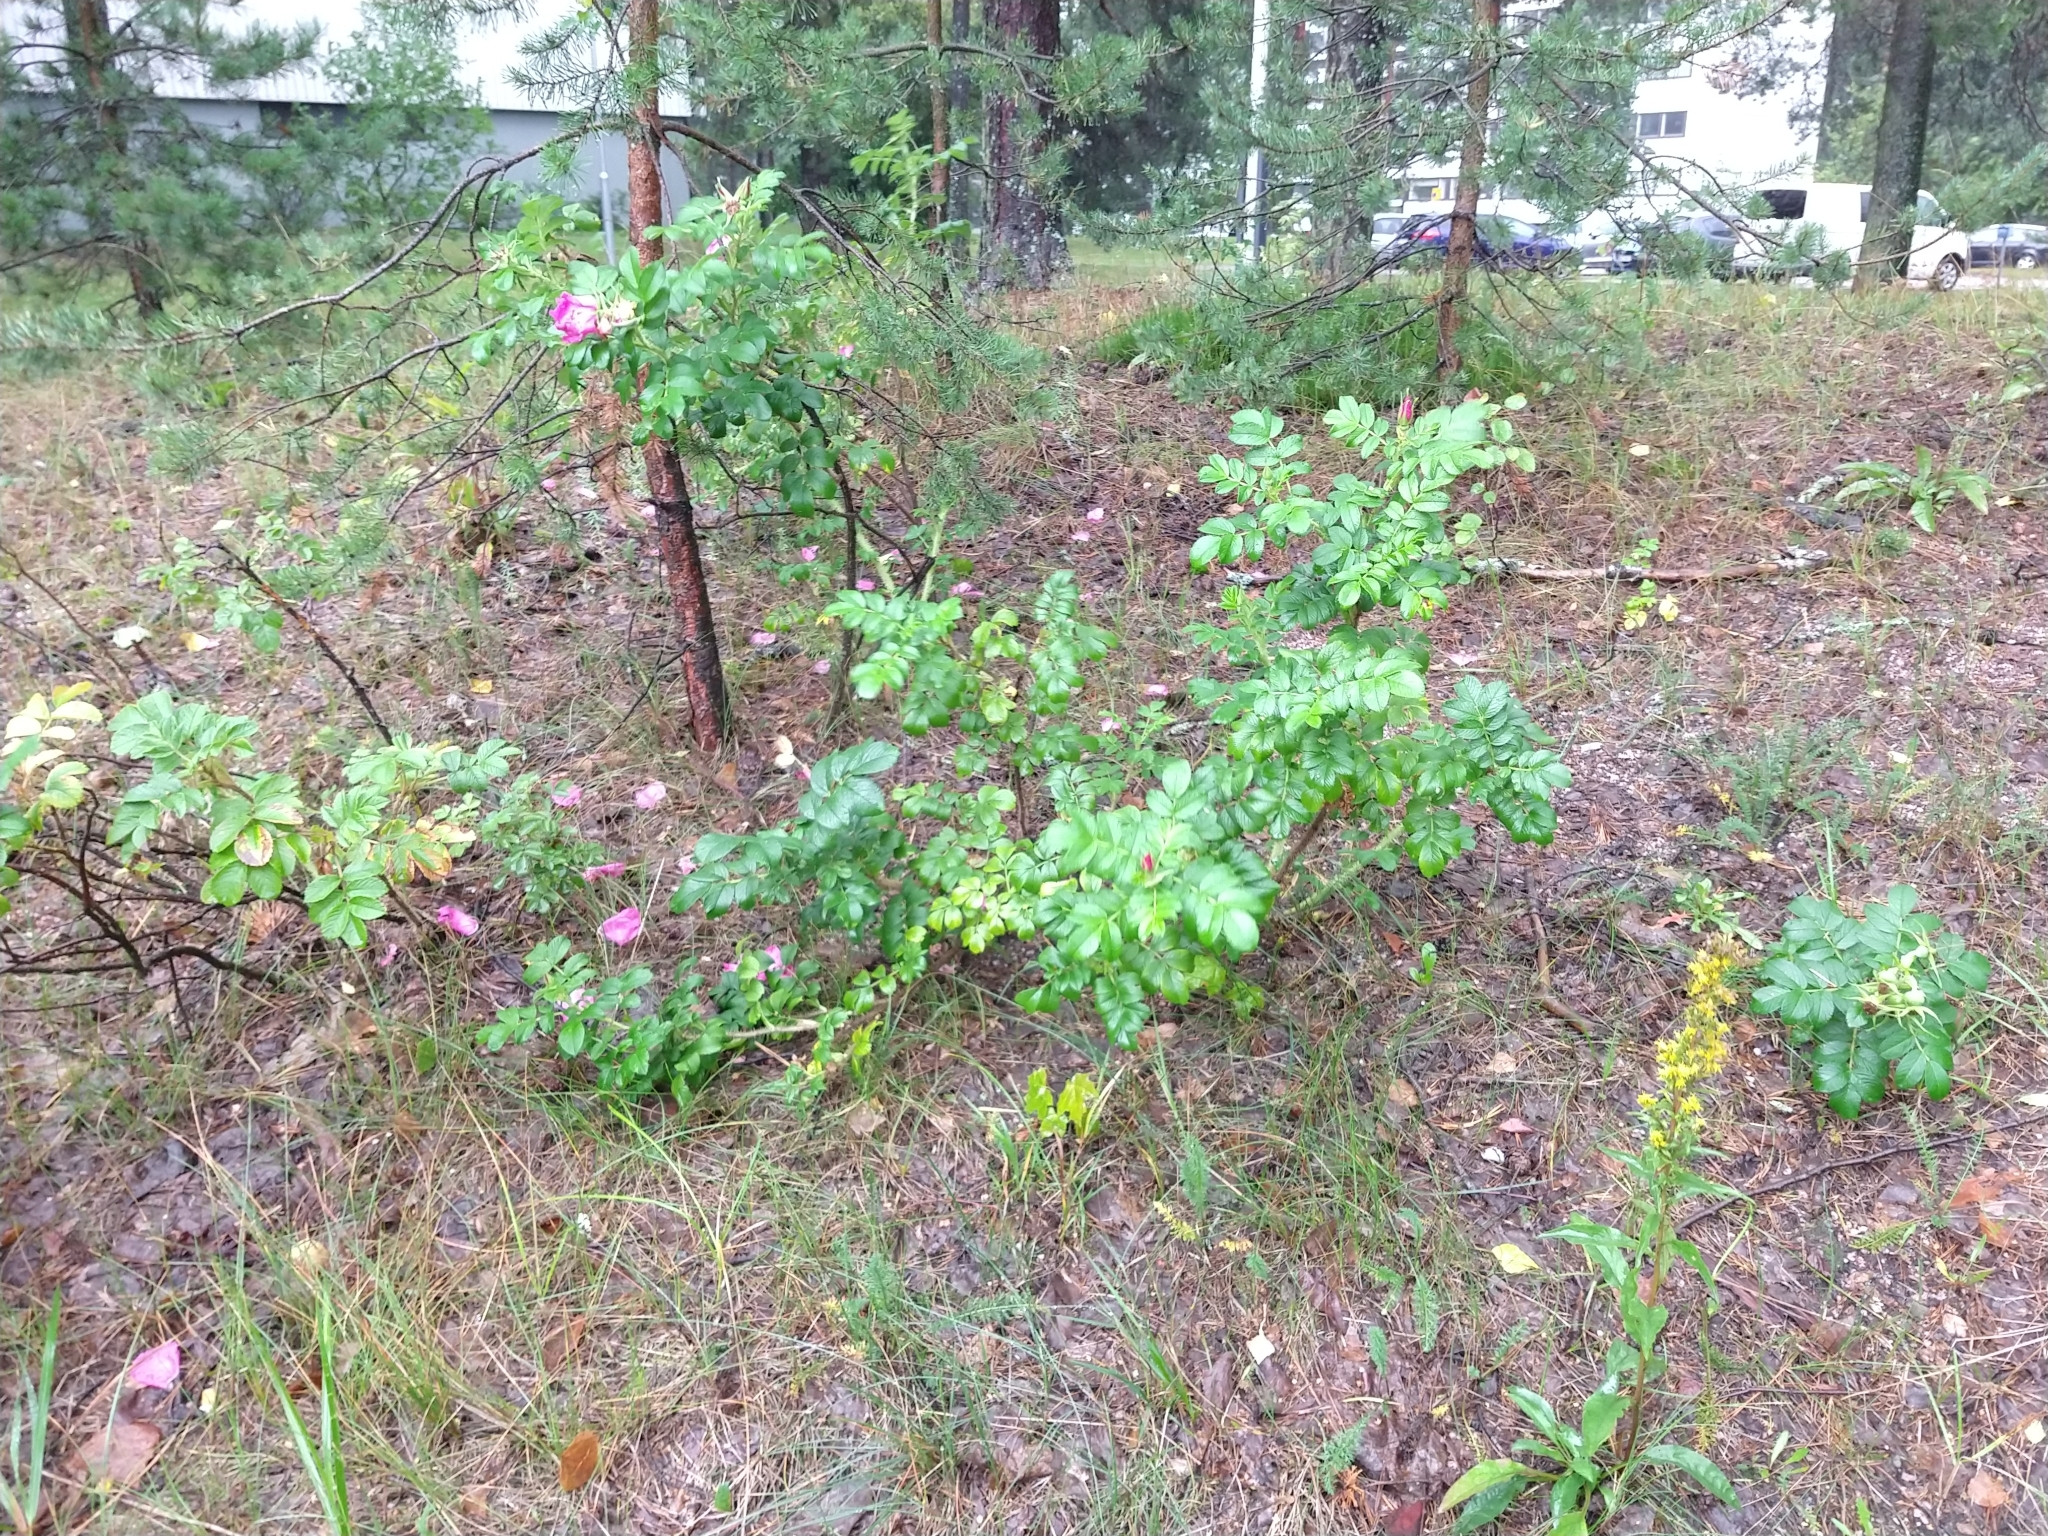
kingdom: Plantae
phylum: Tracheophyta
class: Magnoliopsida
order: Rosales
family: Rosaceae
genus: Rosa
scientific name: Rosa rugosa
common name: Japanese rose
